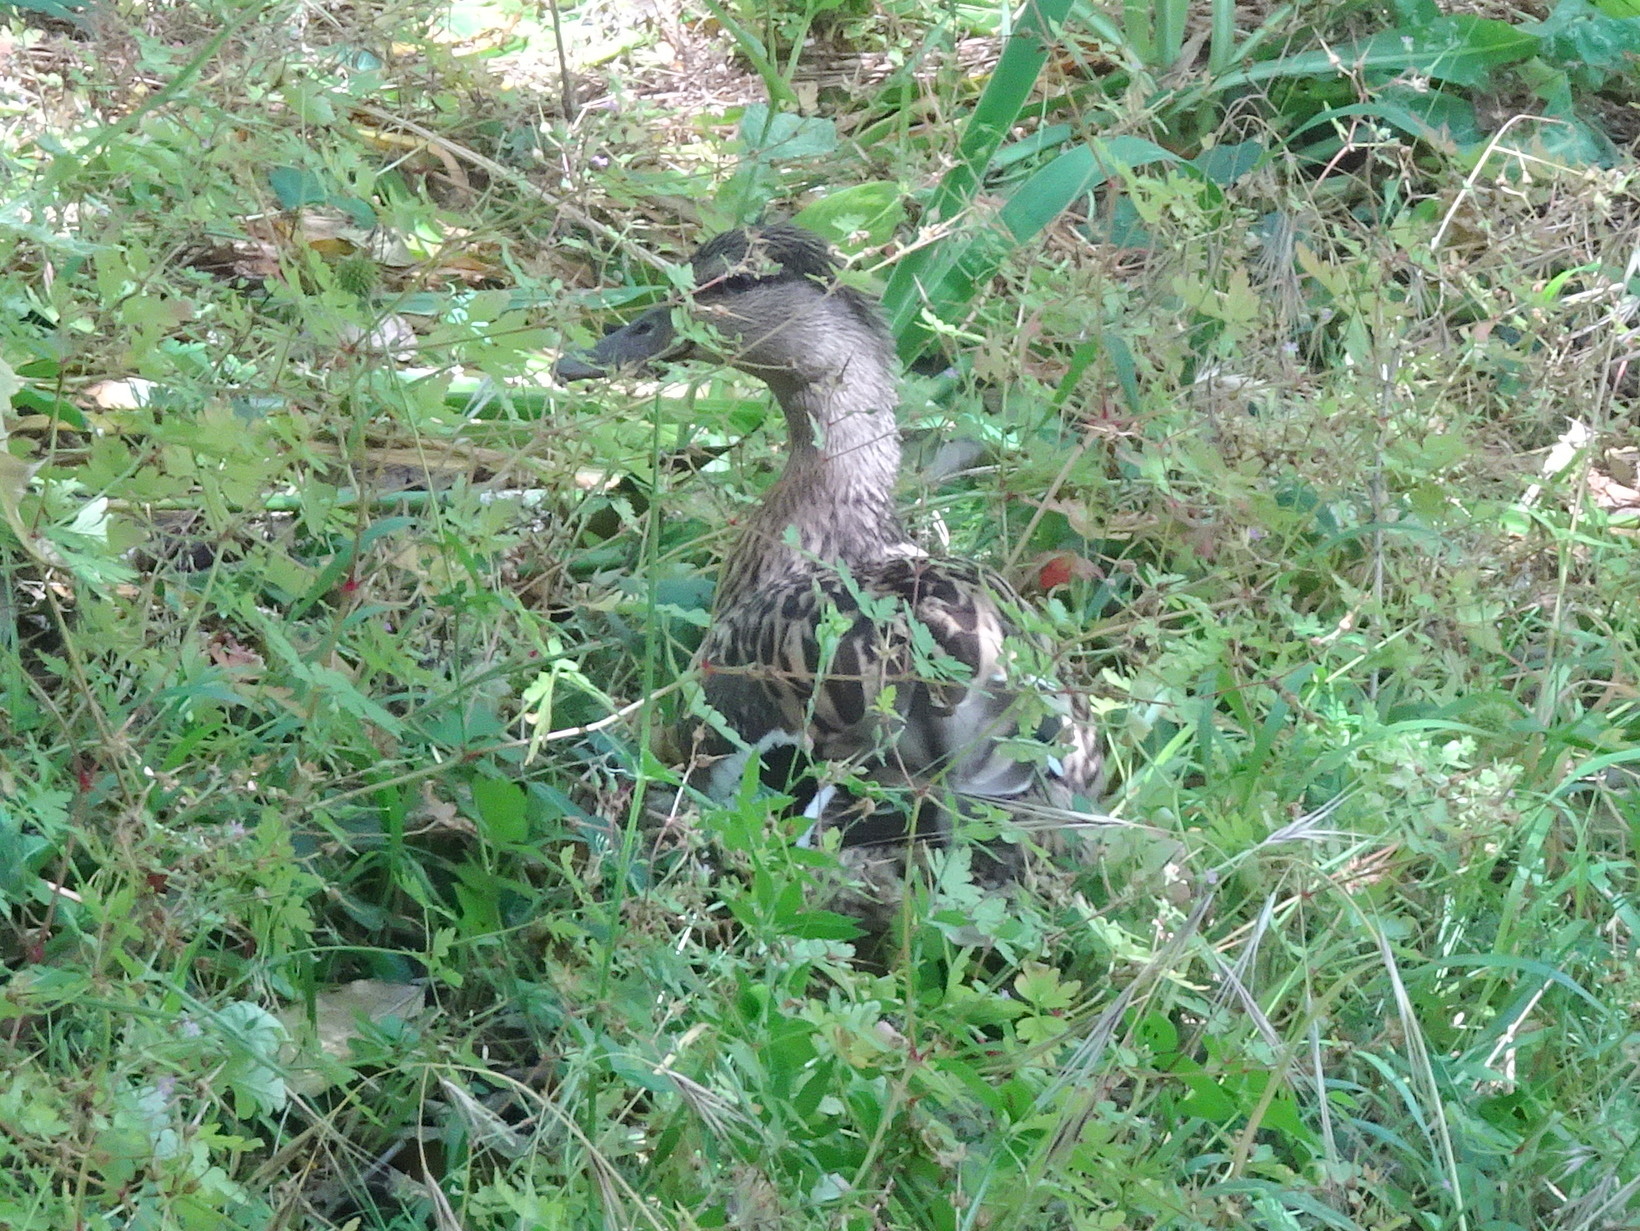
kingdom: Animalia
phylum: Chordata
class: Aves
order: Anseriformes
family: Anatidae
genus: Anas
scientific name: Anas platyrhynchos
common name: Mallard
